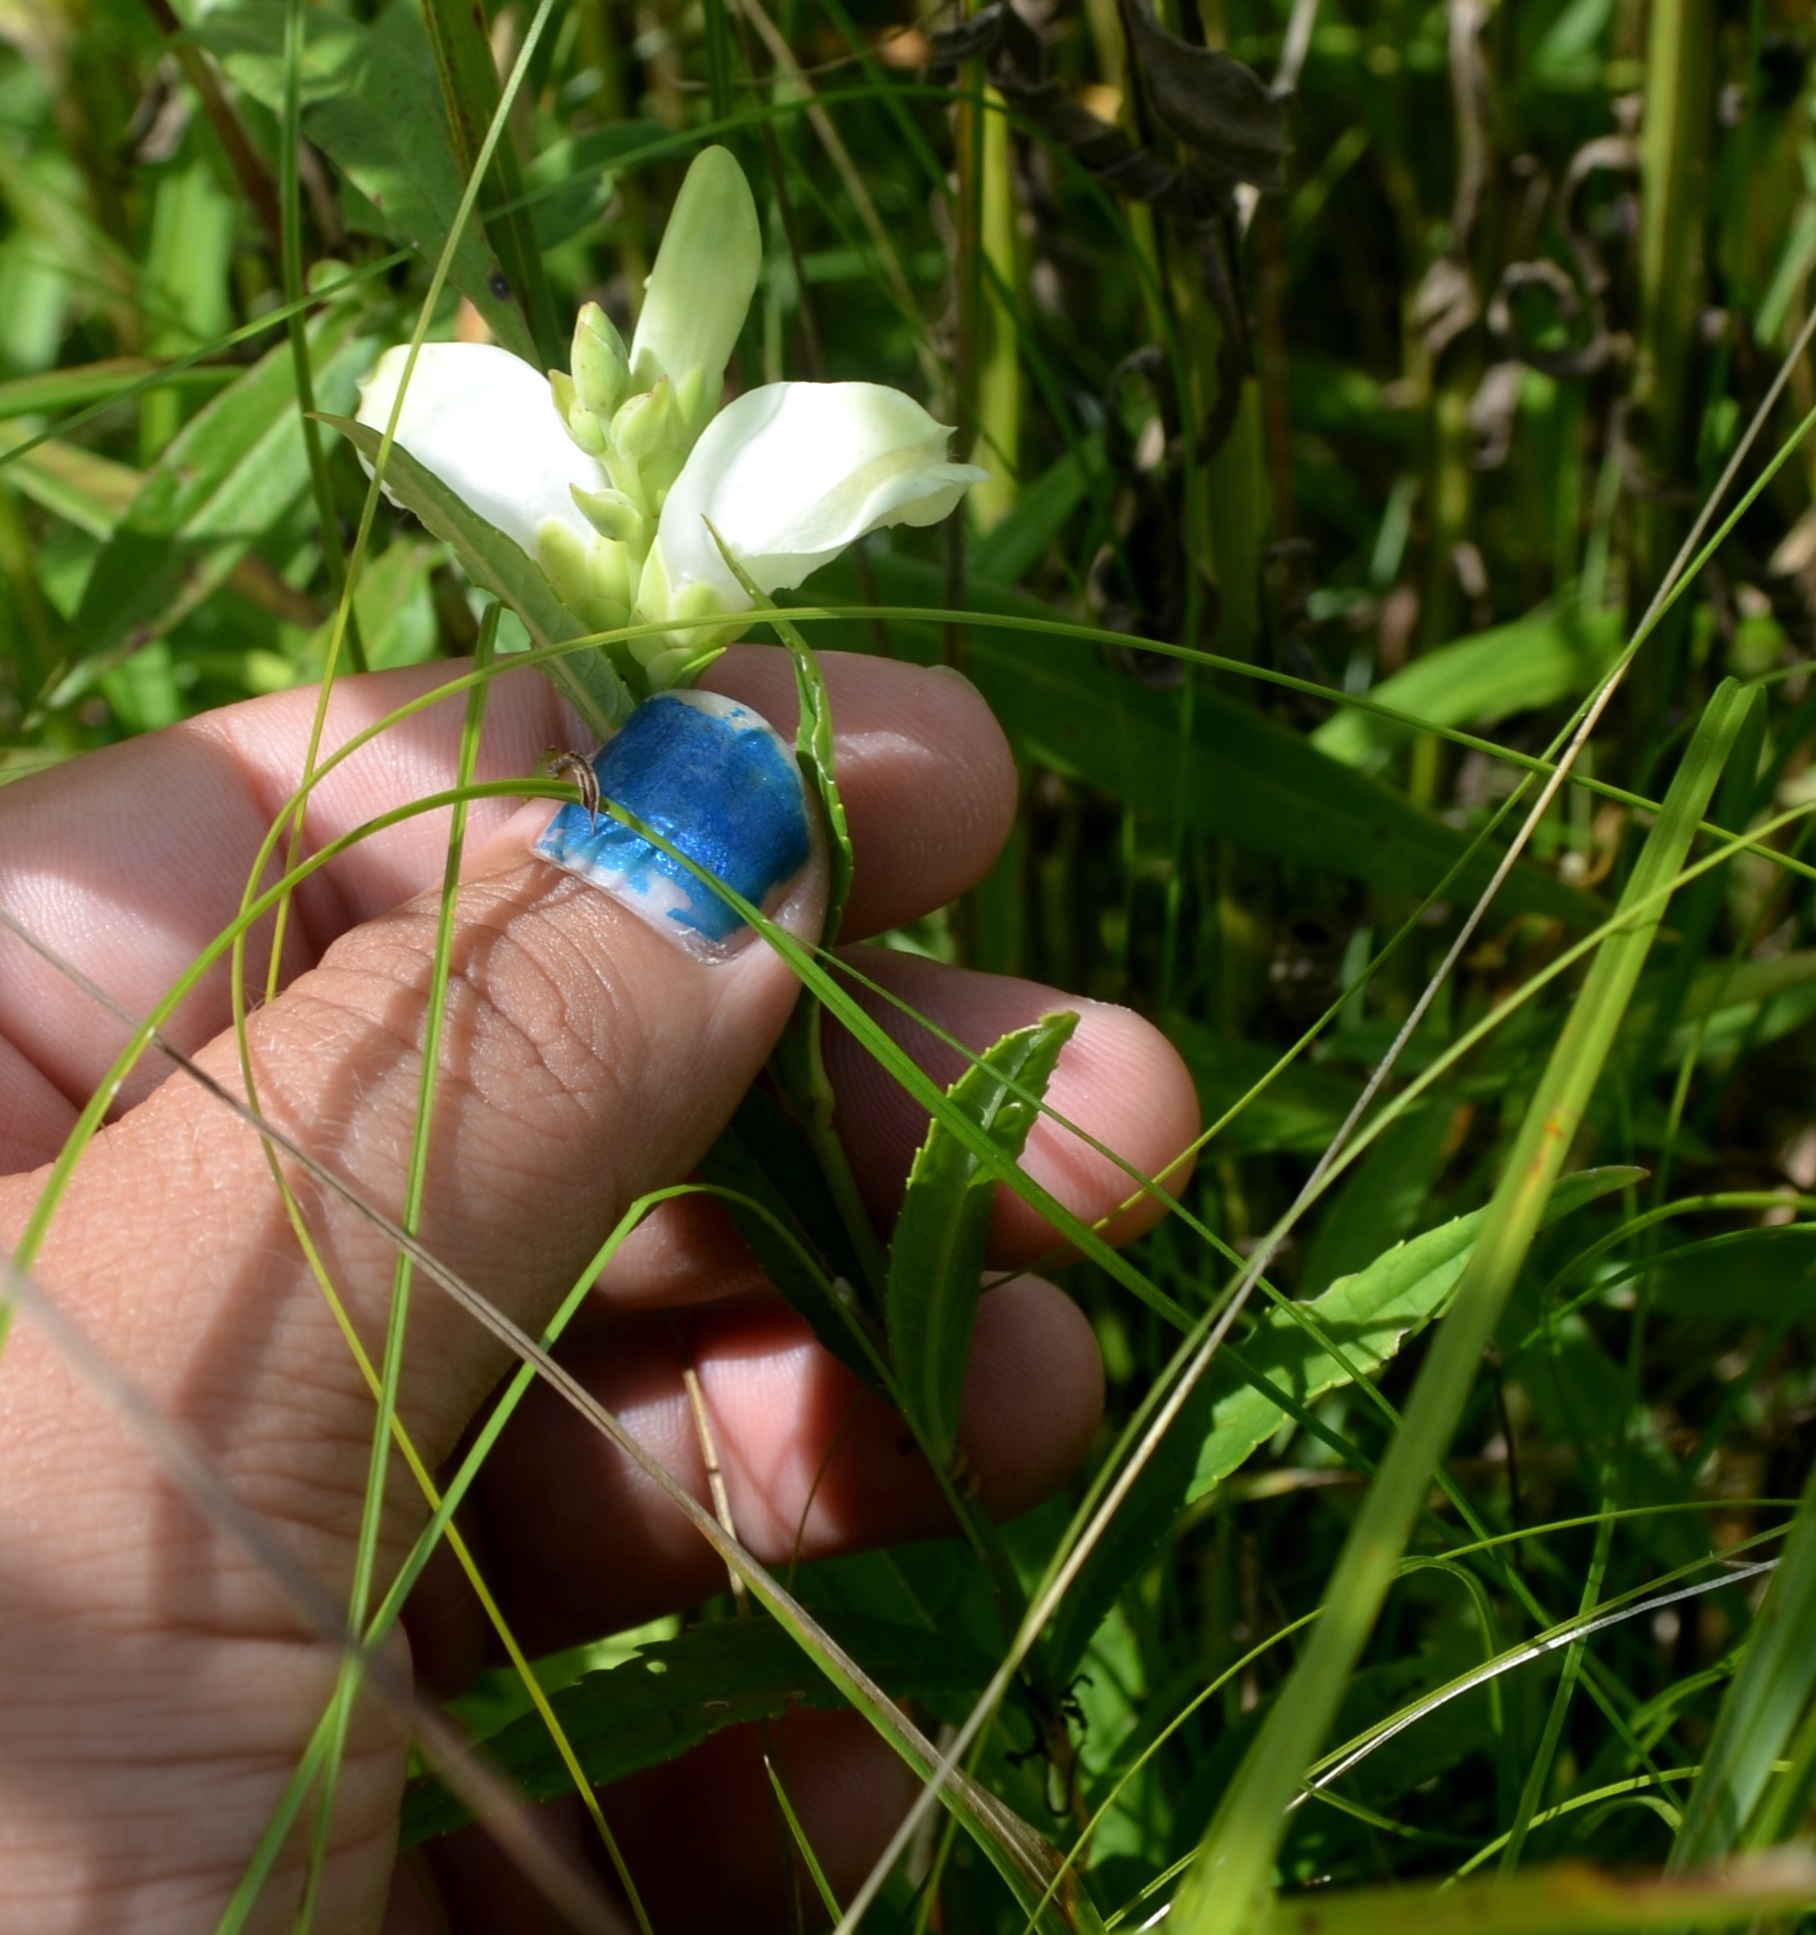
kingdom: Plantae
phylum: Tracheophyta
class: Magnoliopsida
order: Lamiales
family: Plantaginaceae
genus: Chelone
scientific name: Chelone glabra
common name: Snakehead
